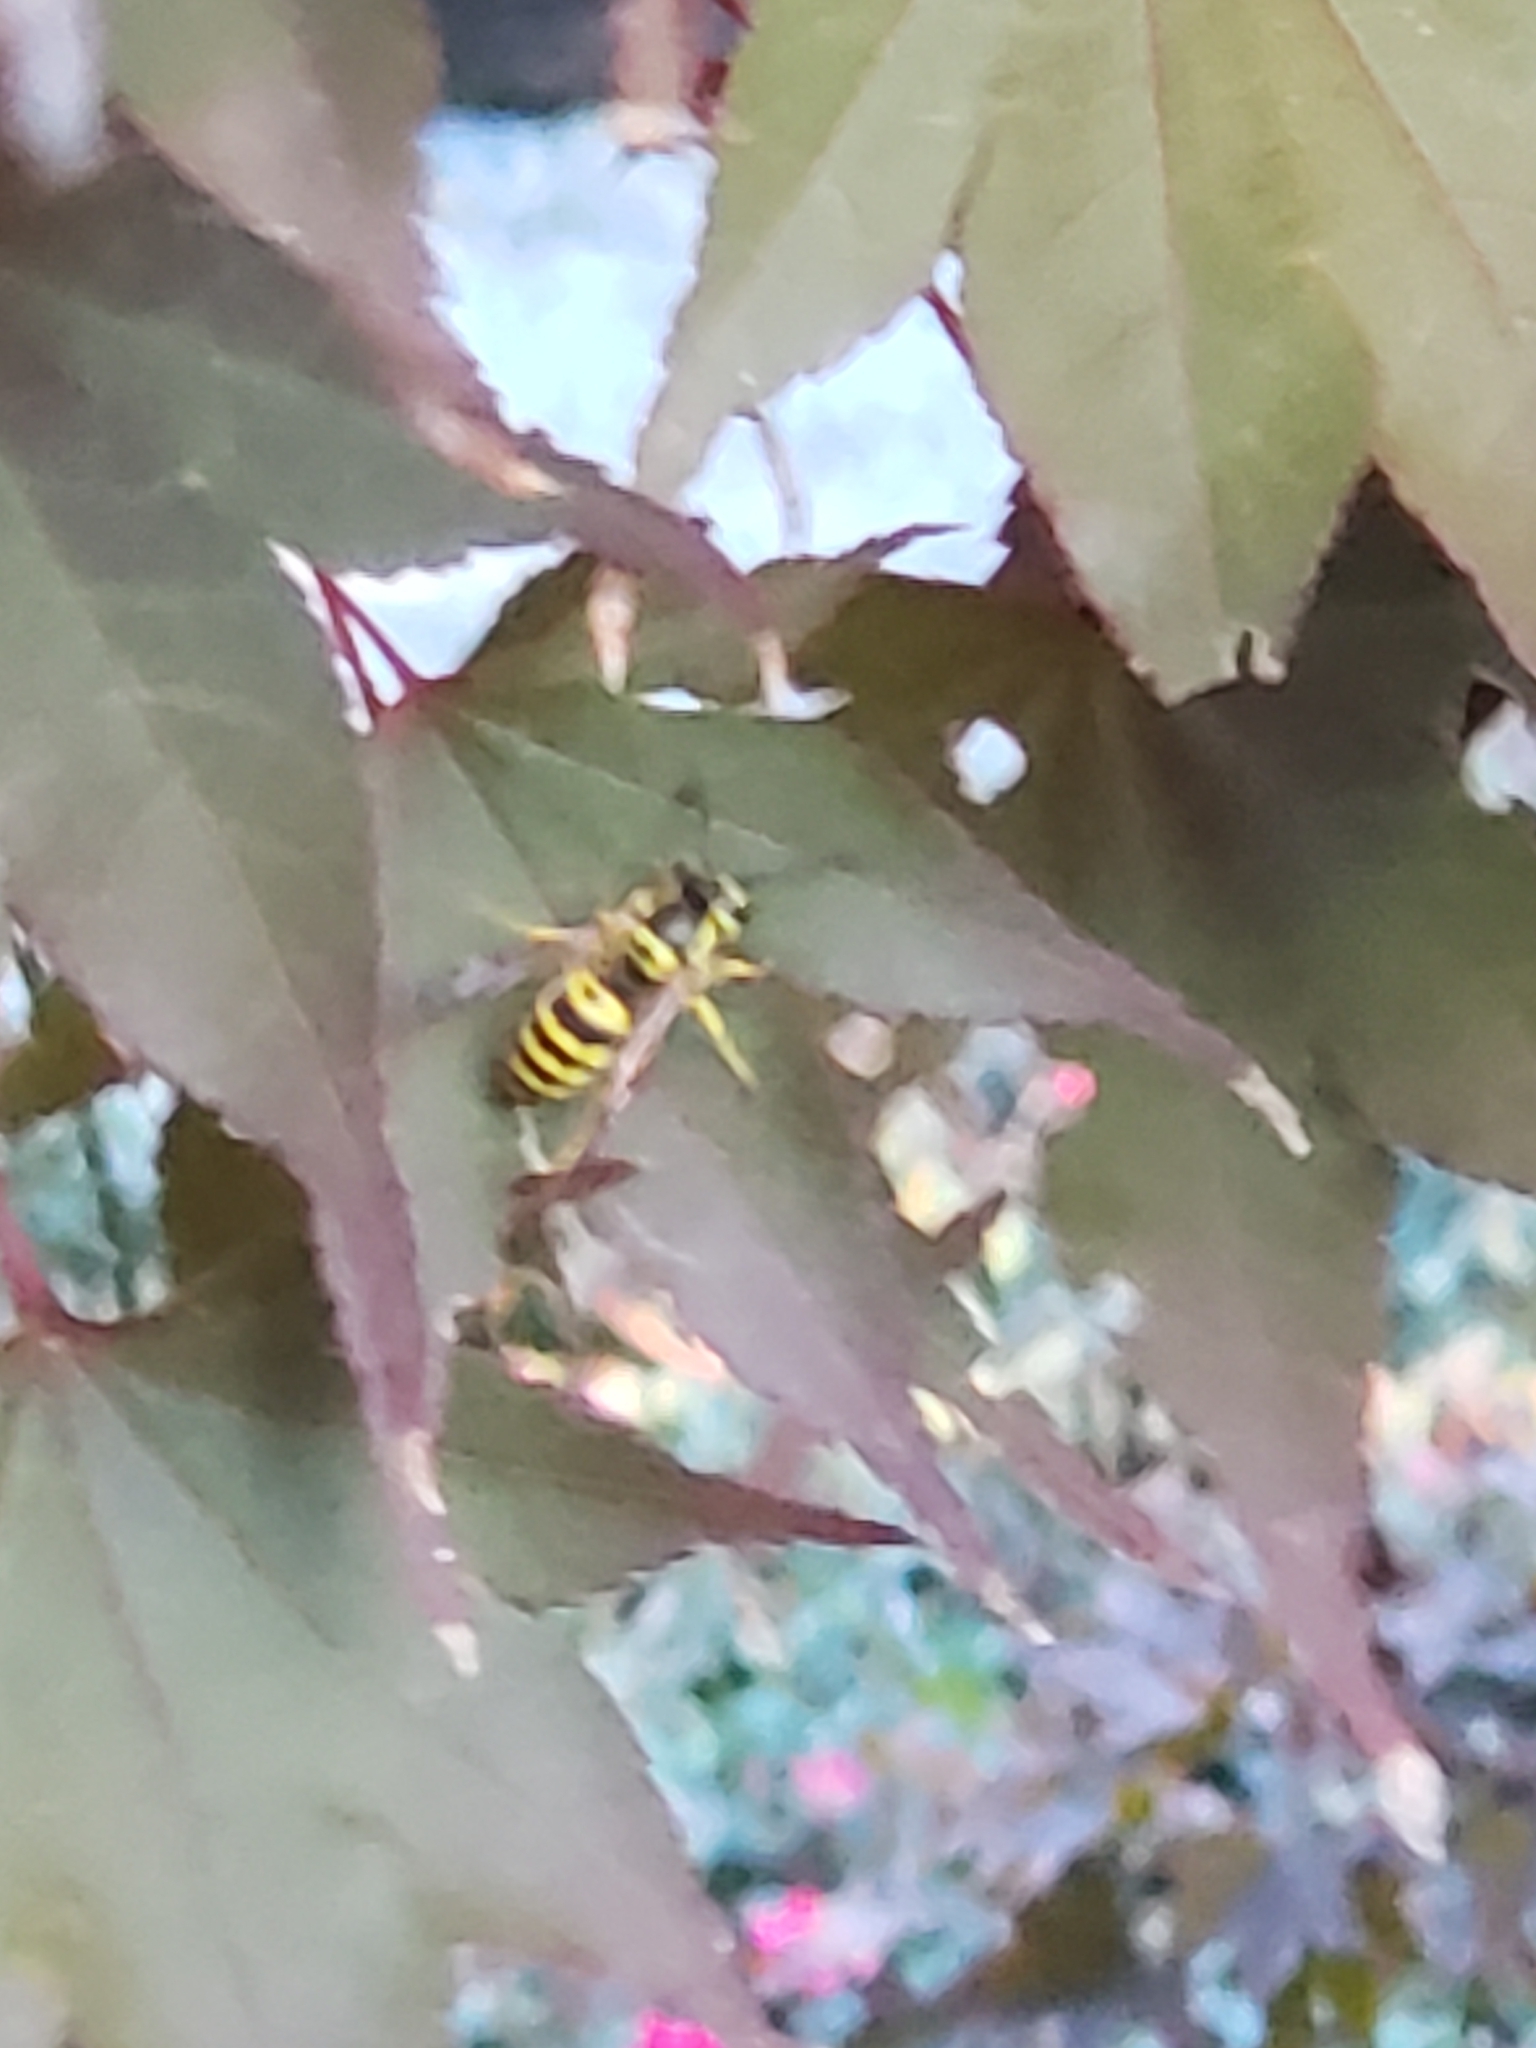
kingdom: Animalia
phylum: Arthropoda
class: Insecta
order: Hymenoptera
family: Vespidae
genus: Vespula
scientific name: Vespula maculifrons
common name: Eastern yellowjacket
